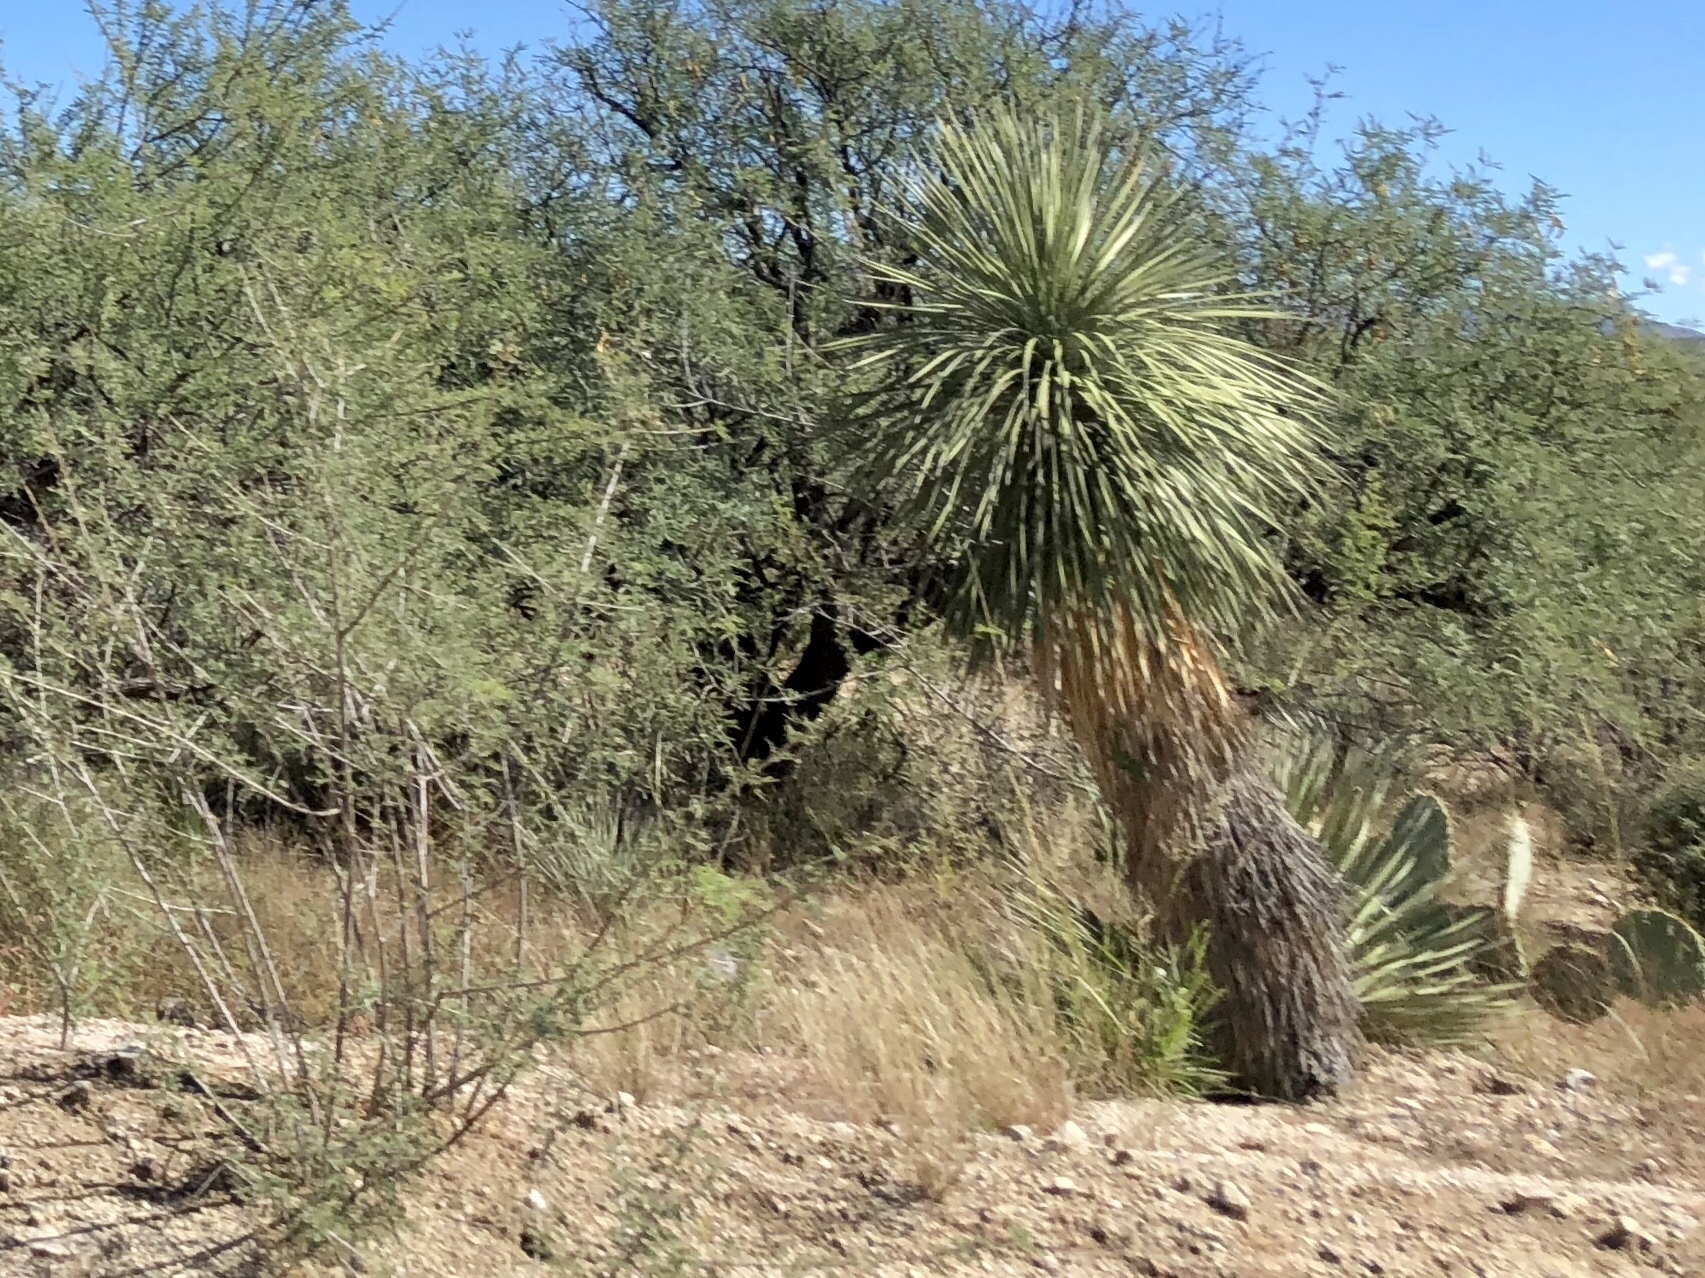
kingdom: Plantae
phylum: Tracheophyta
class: Liliopsida
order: Asparagales
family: Asparagaceae
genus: Yucca
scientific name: Yucca elata
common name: Palmella
